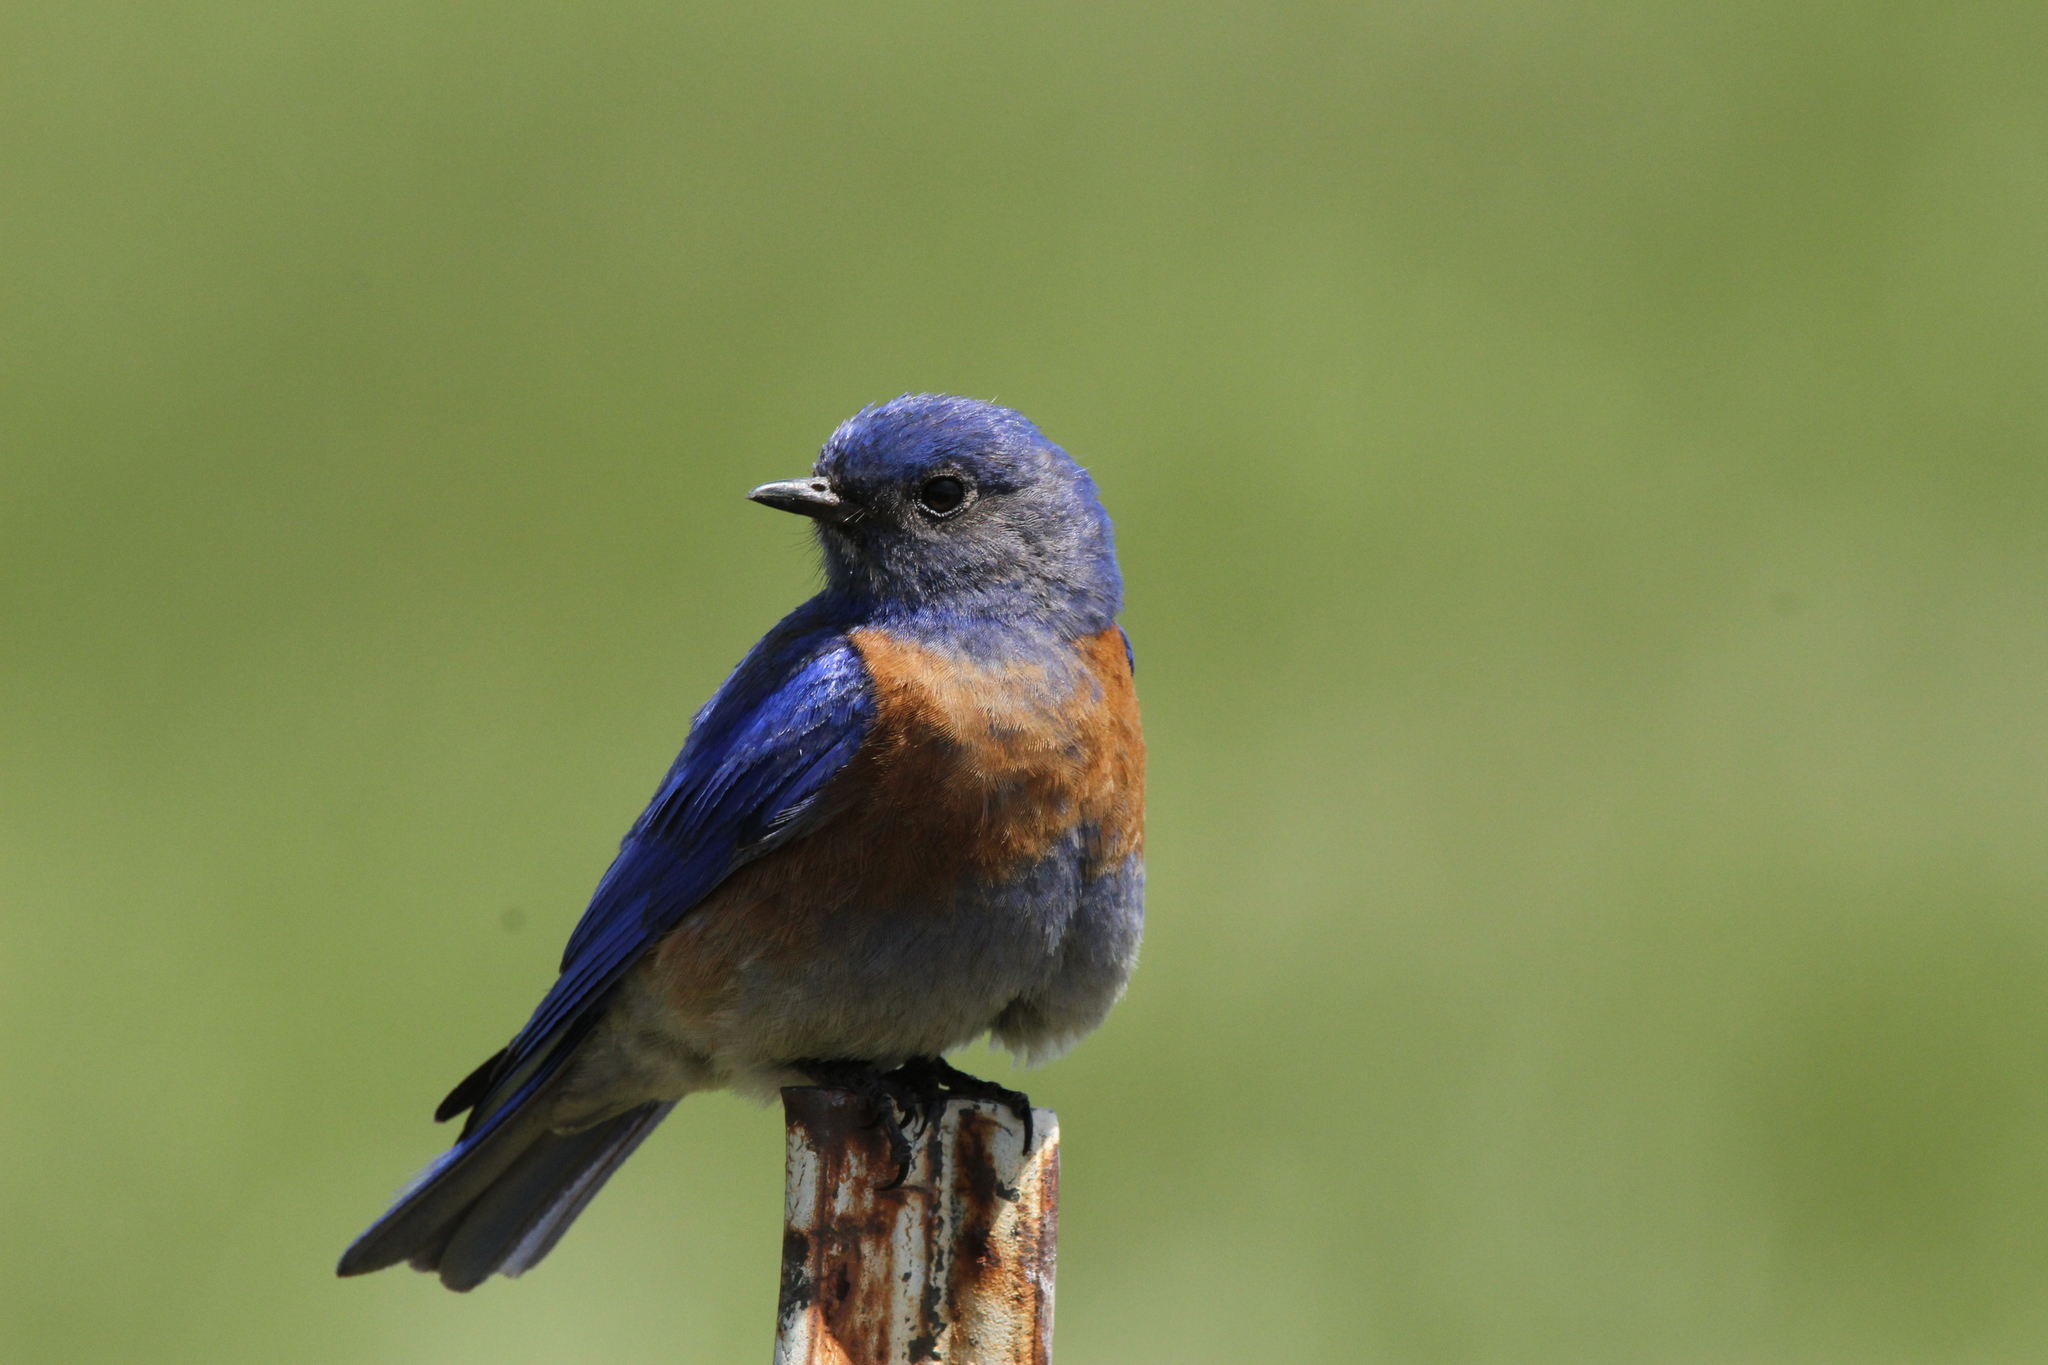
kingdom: Animalia
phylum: Chordata
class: Aves
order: Passeriformes
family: Turdidae
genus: Sialia
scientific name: Sialia mexicana
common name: Western bluebird
